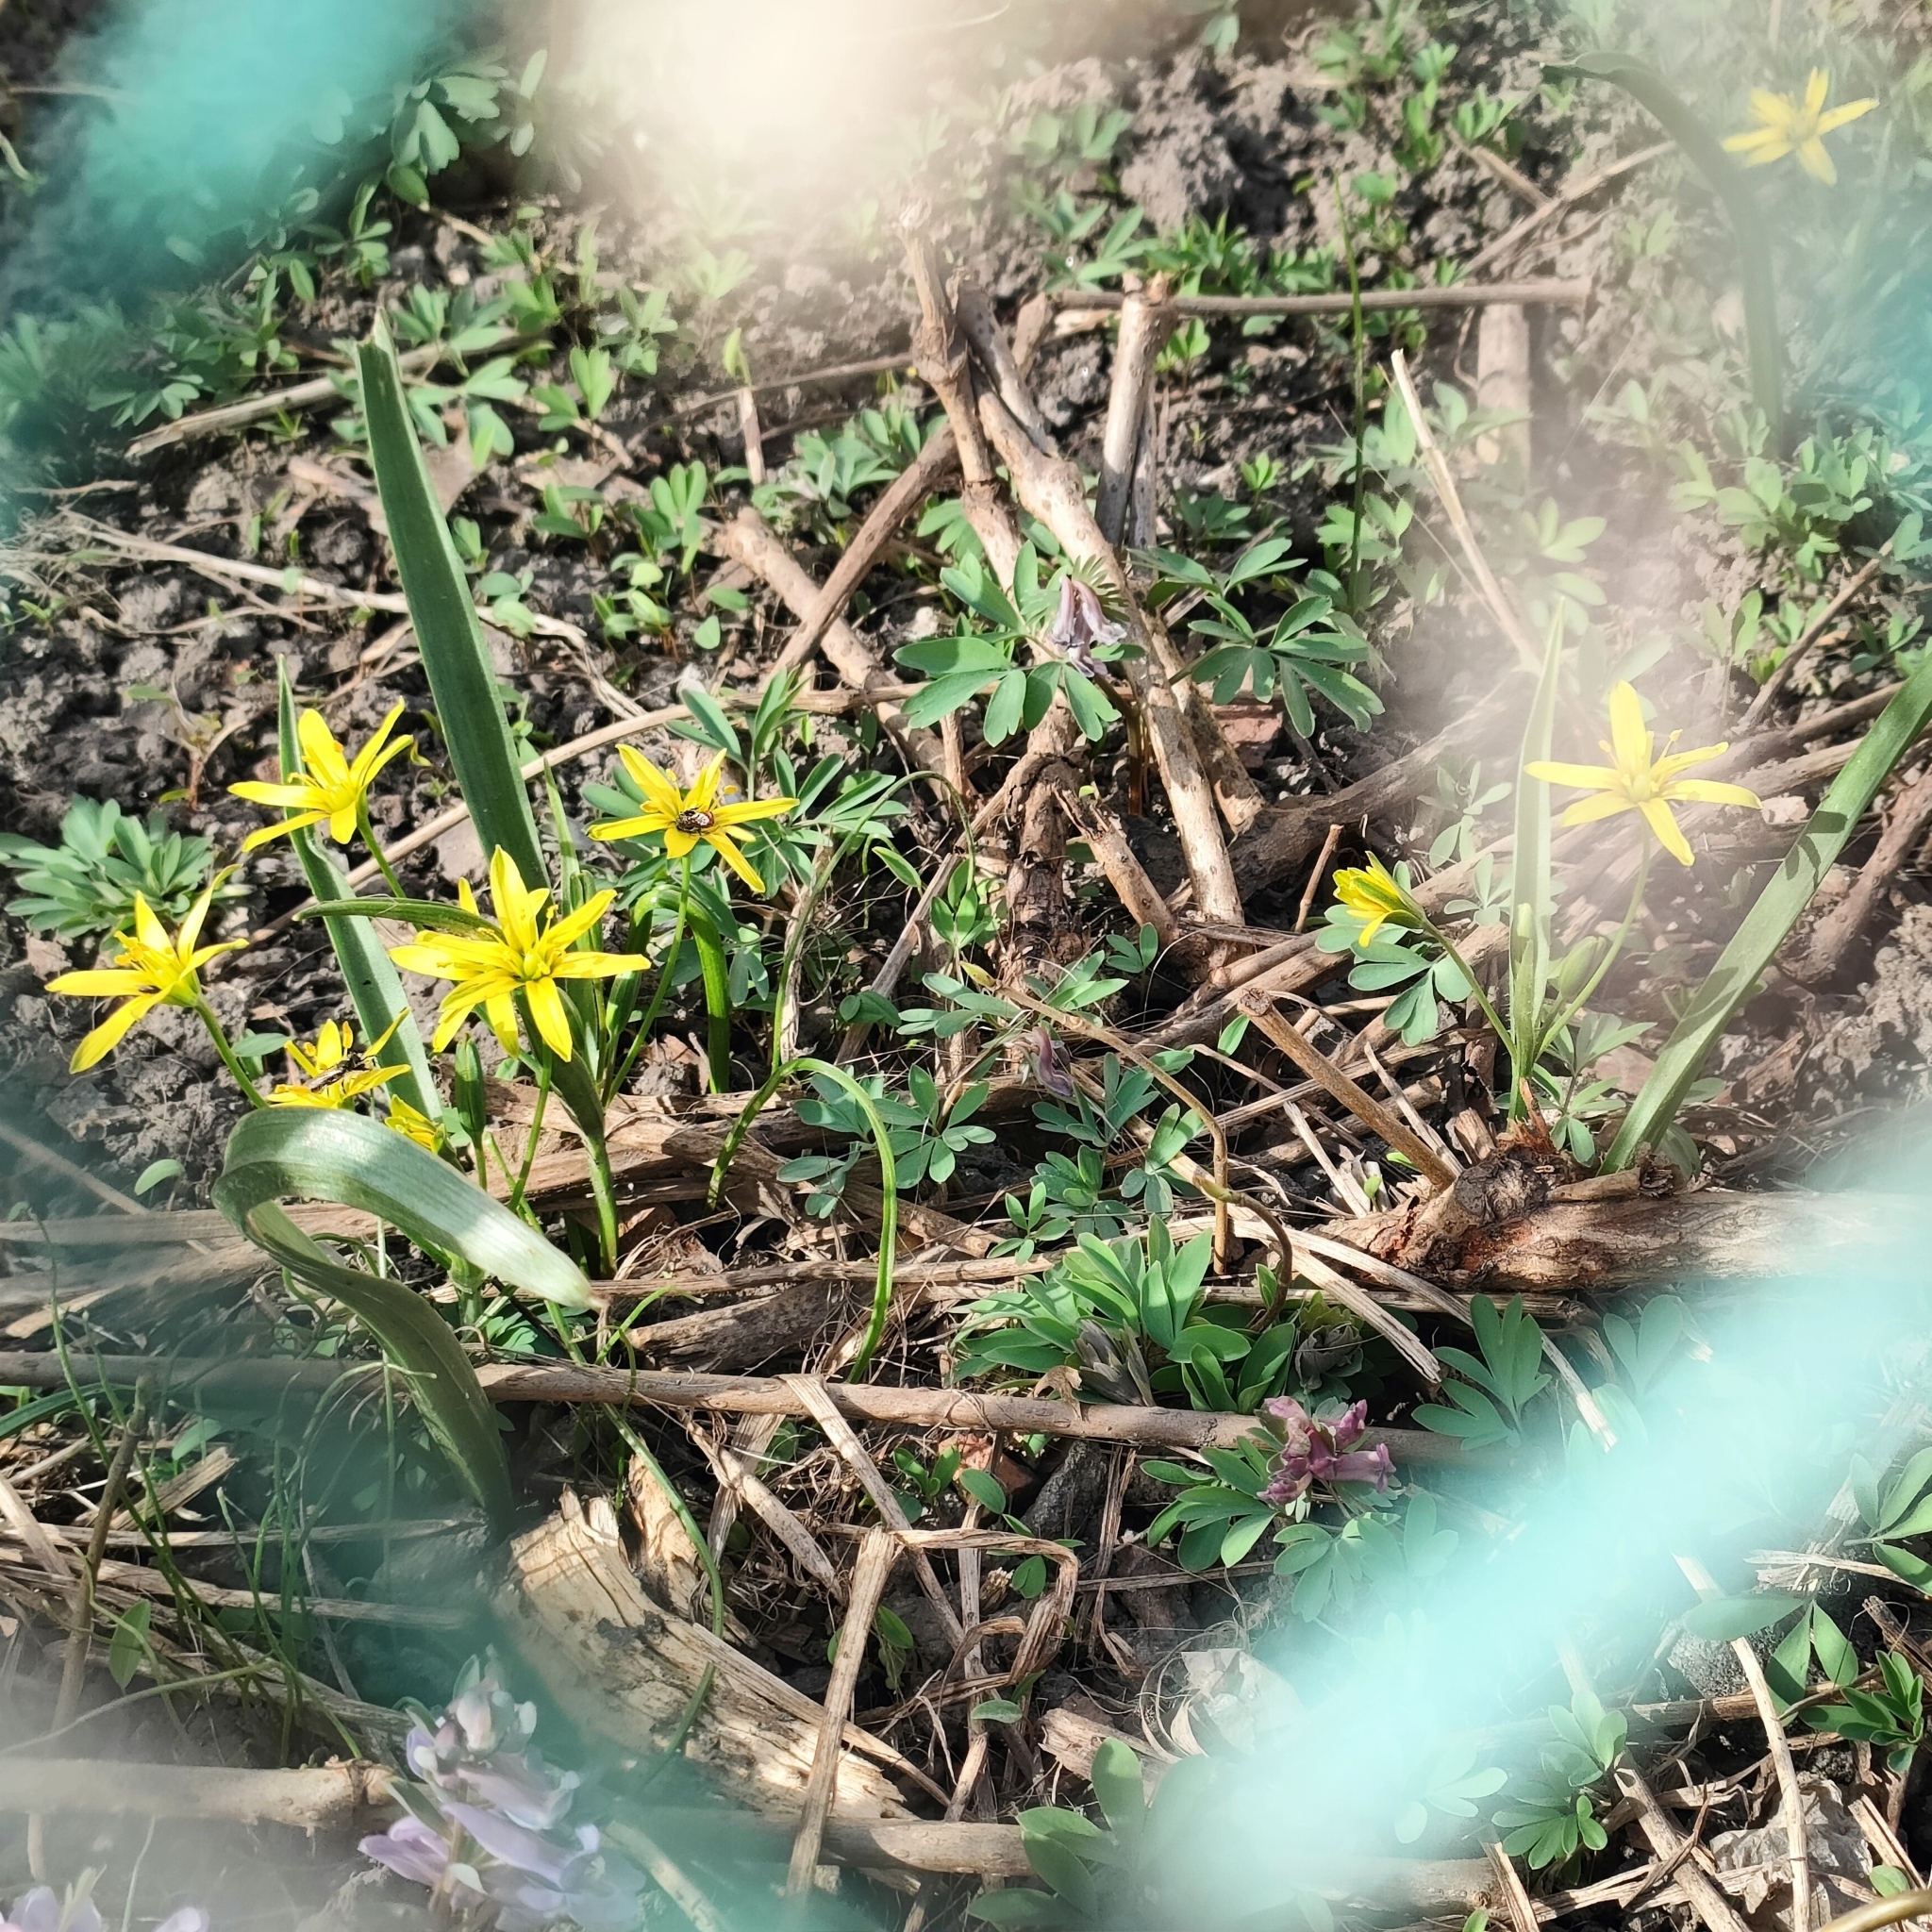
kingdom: Plantae
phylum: Tracheophyta
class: Liliopsida
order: Liliales
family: Liliaceae
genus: Gagea
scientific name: Gagea lutea
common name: Yellow star-of-bethlehem
